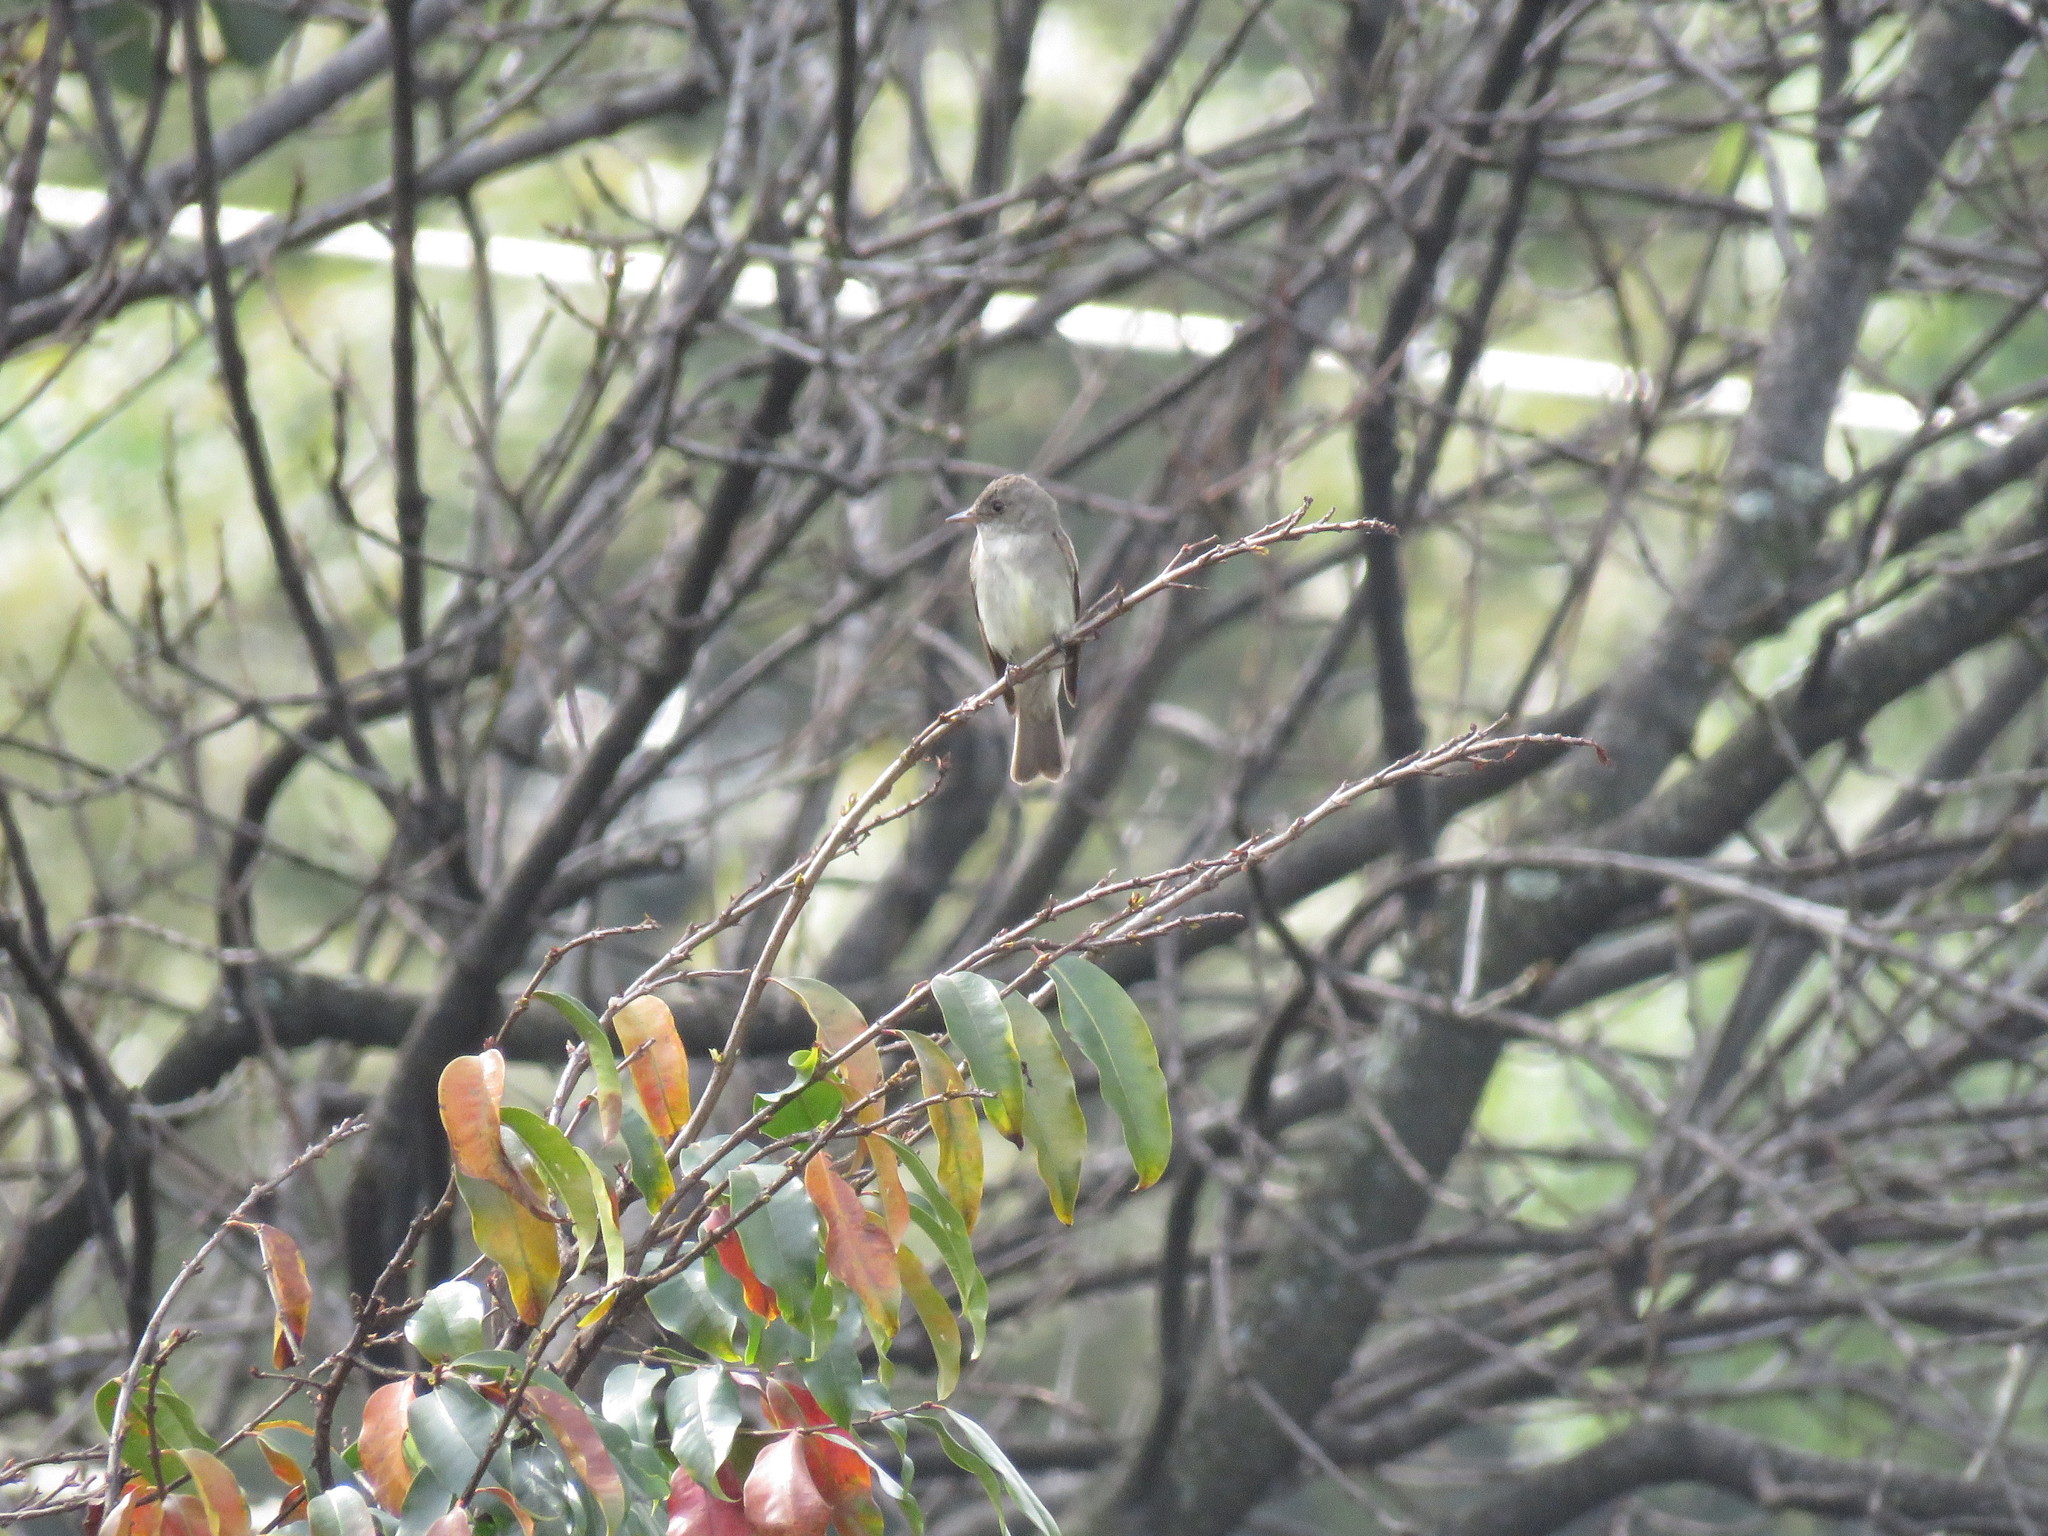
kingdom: Animalia
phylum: Chordata
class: Aves
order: Passeriformes
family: Tyrannidae
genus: Contopus
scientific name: Contopus virens
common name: Eastern wood-pewee
